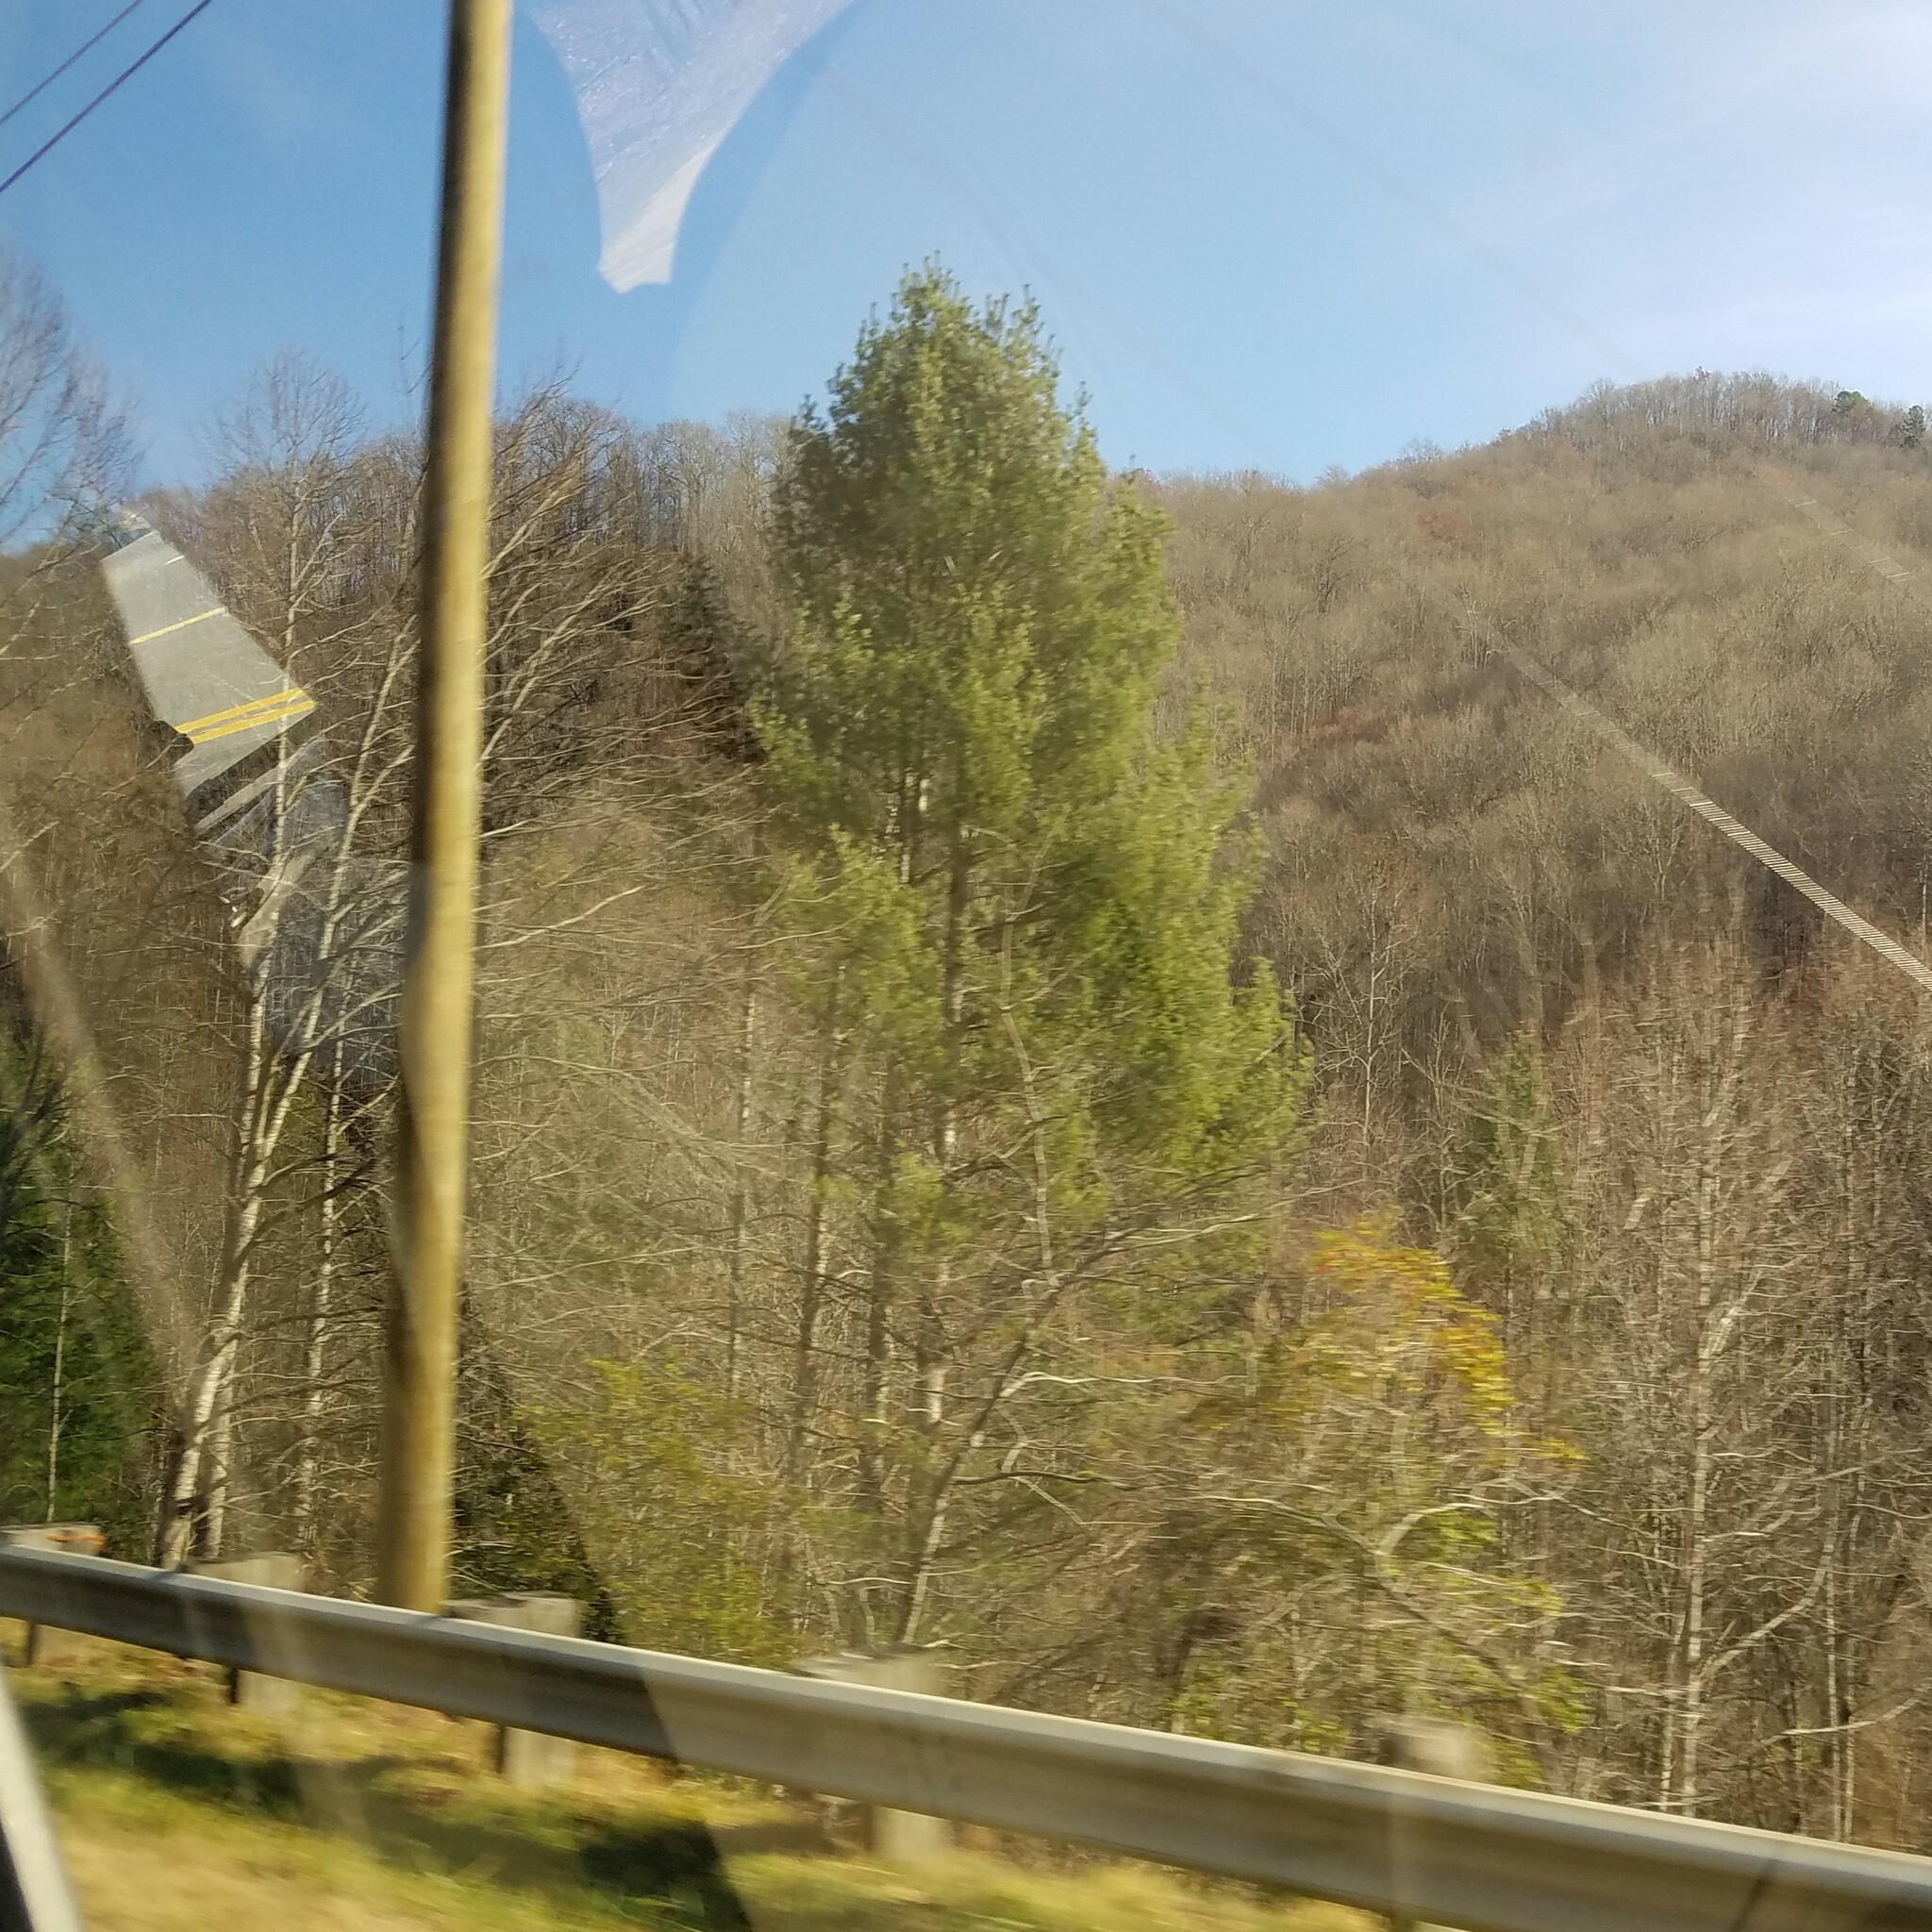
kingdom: Plantae
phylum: Tracheophyta
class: Pinopsida
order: Pinales
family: Pinaceae
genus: Pinus
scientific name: Pinus strobus
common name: Weymouth pine
